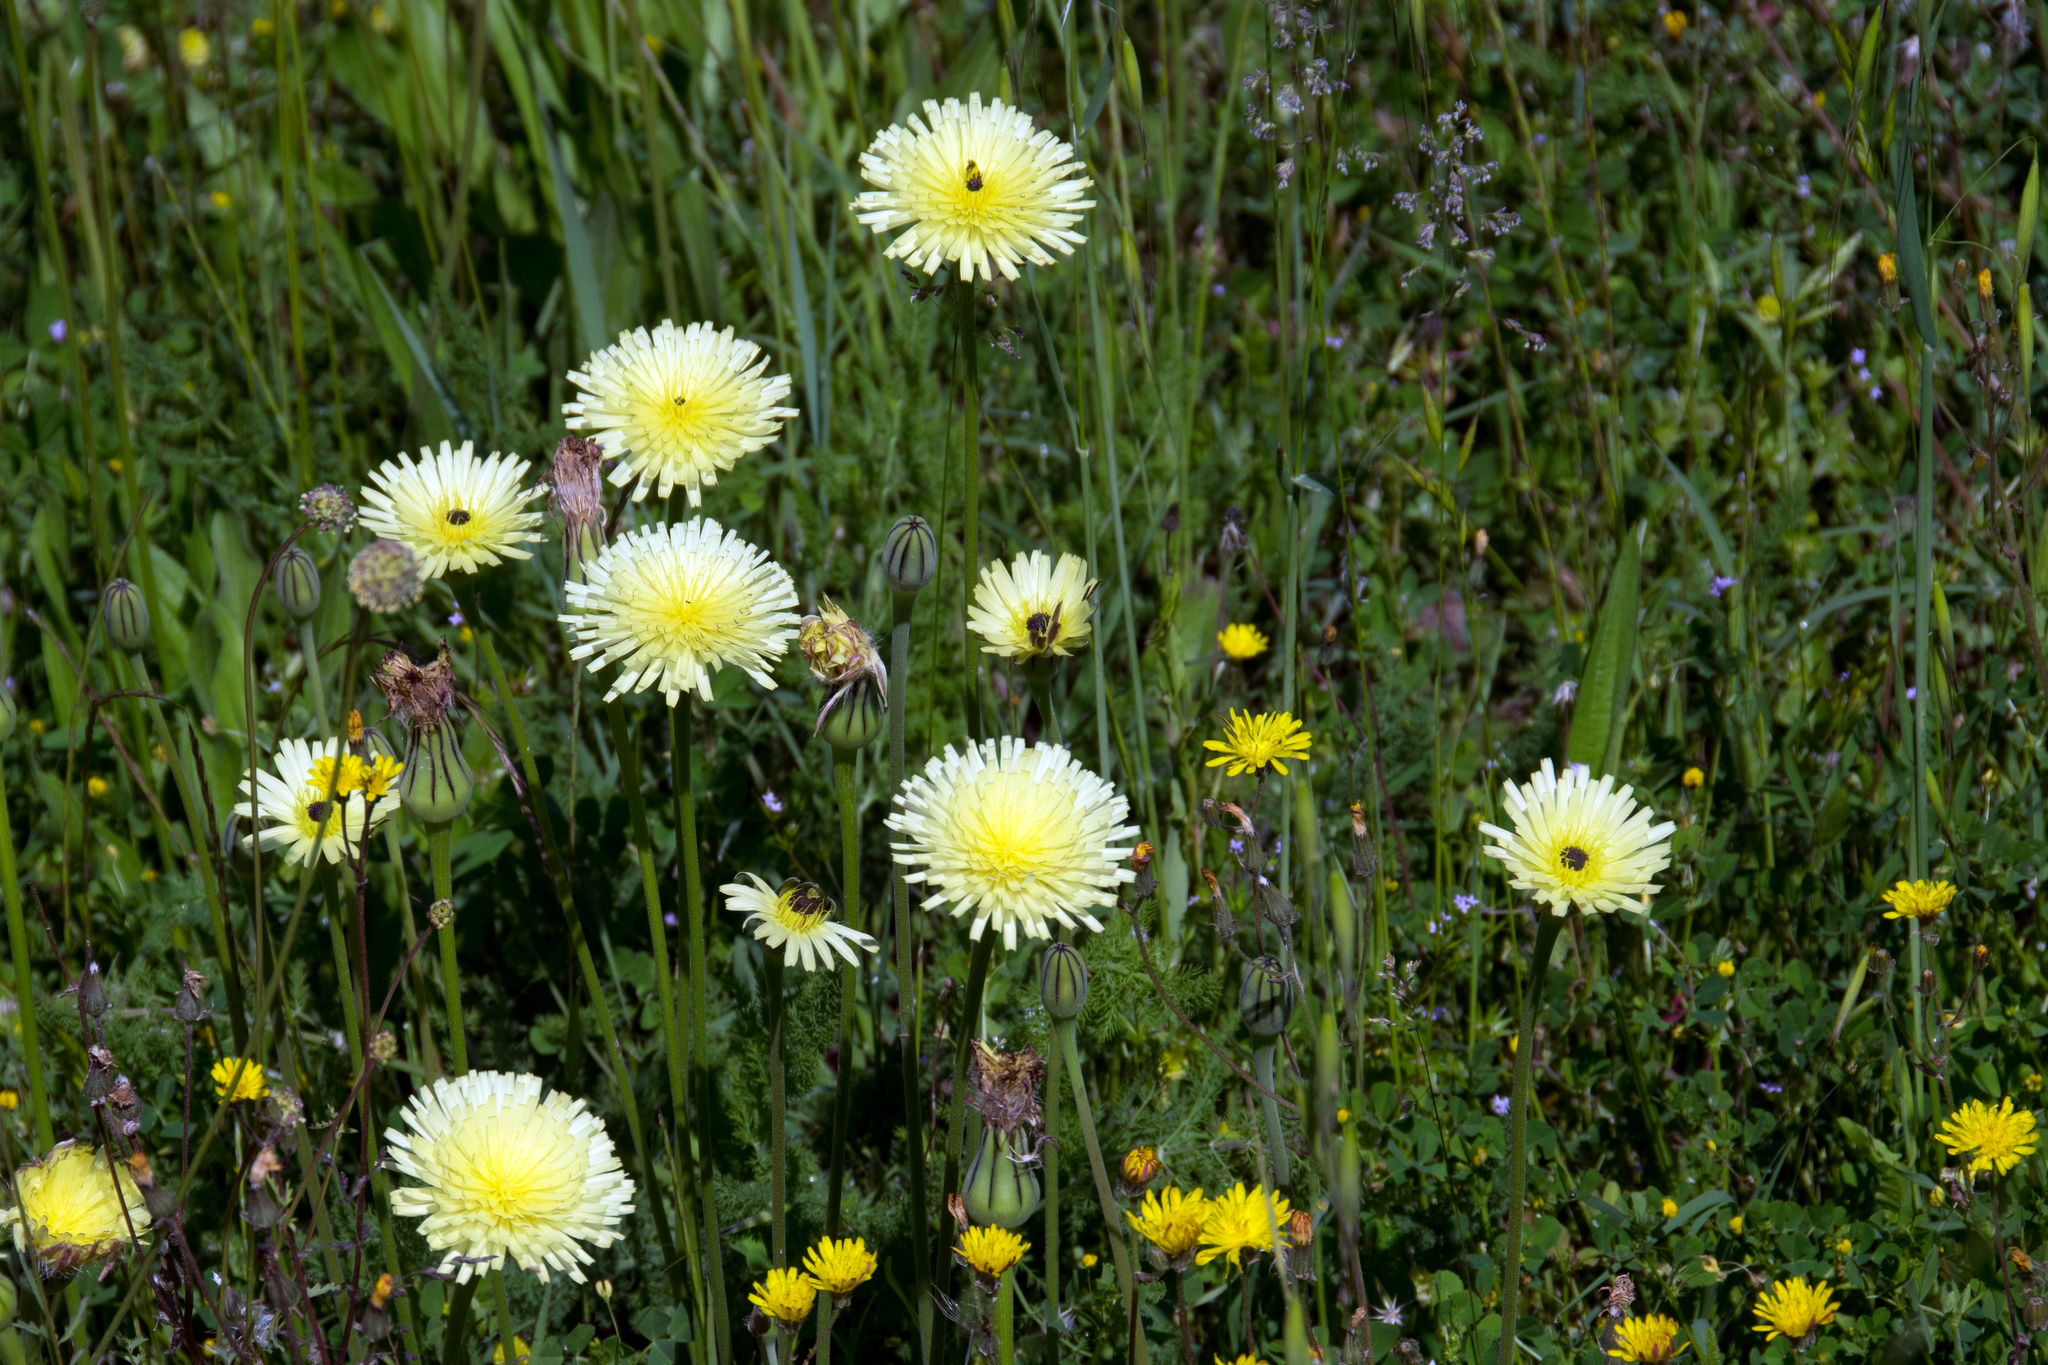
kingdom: Plantae
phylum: Tracheophyta
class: Magnoliopsida
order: Asterales
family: Asteraceae
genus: Urospermum
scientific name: Urospermum dalechampii
